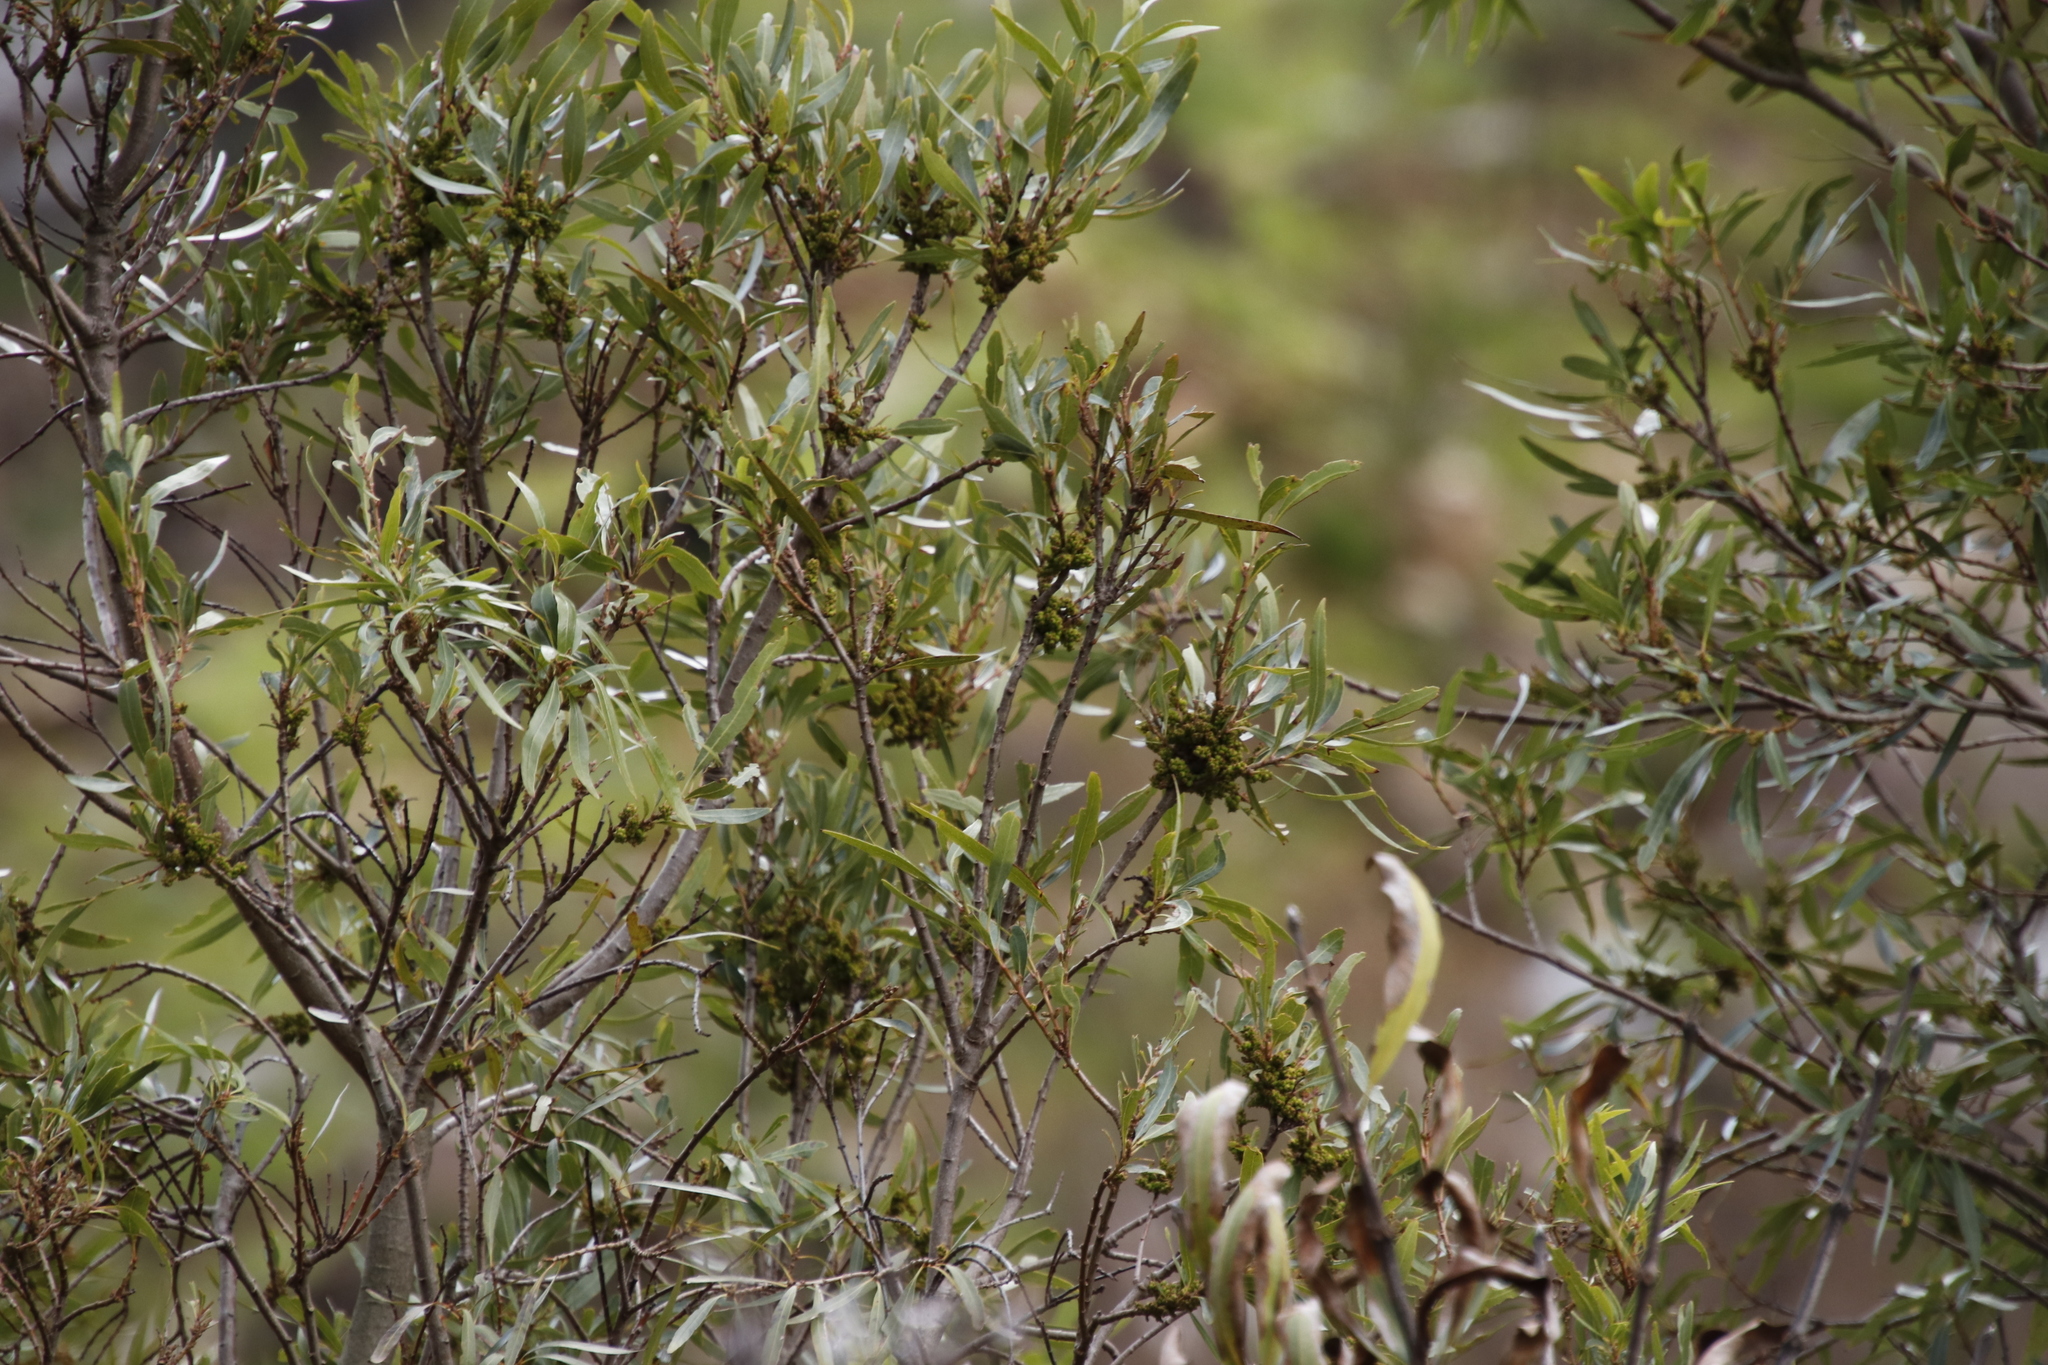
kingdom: Plantae
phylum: Tracheophyta
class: Magnoliopsida
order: Myrtales
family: Myrtaceae
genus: Callistemon
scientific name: Callistemon lanceolatus
